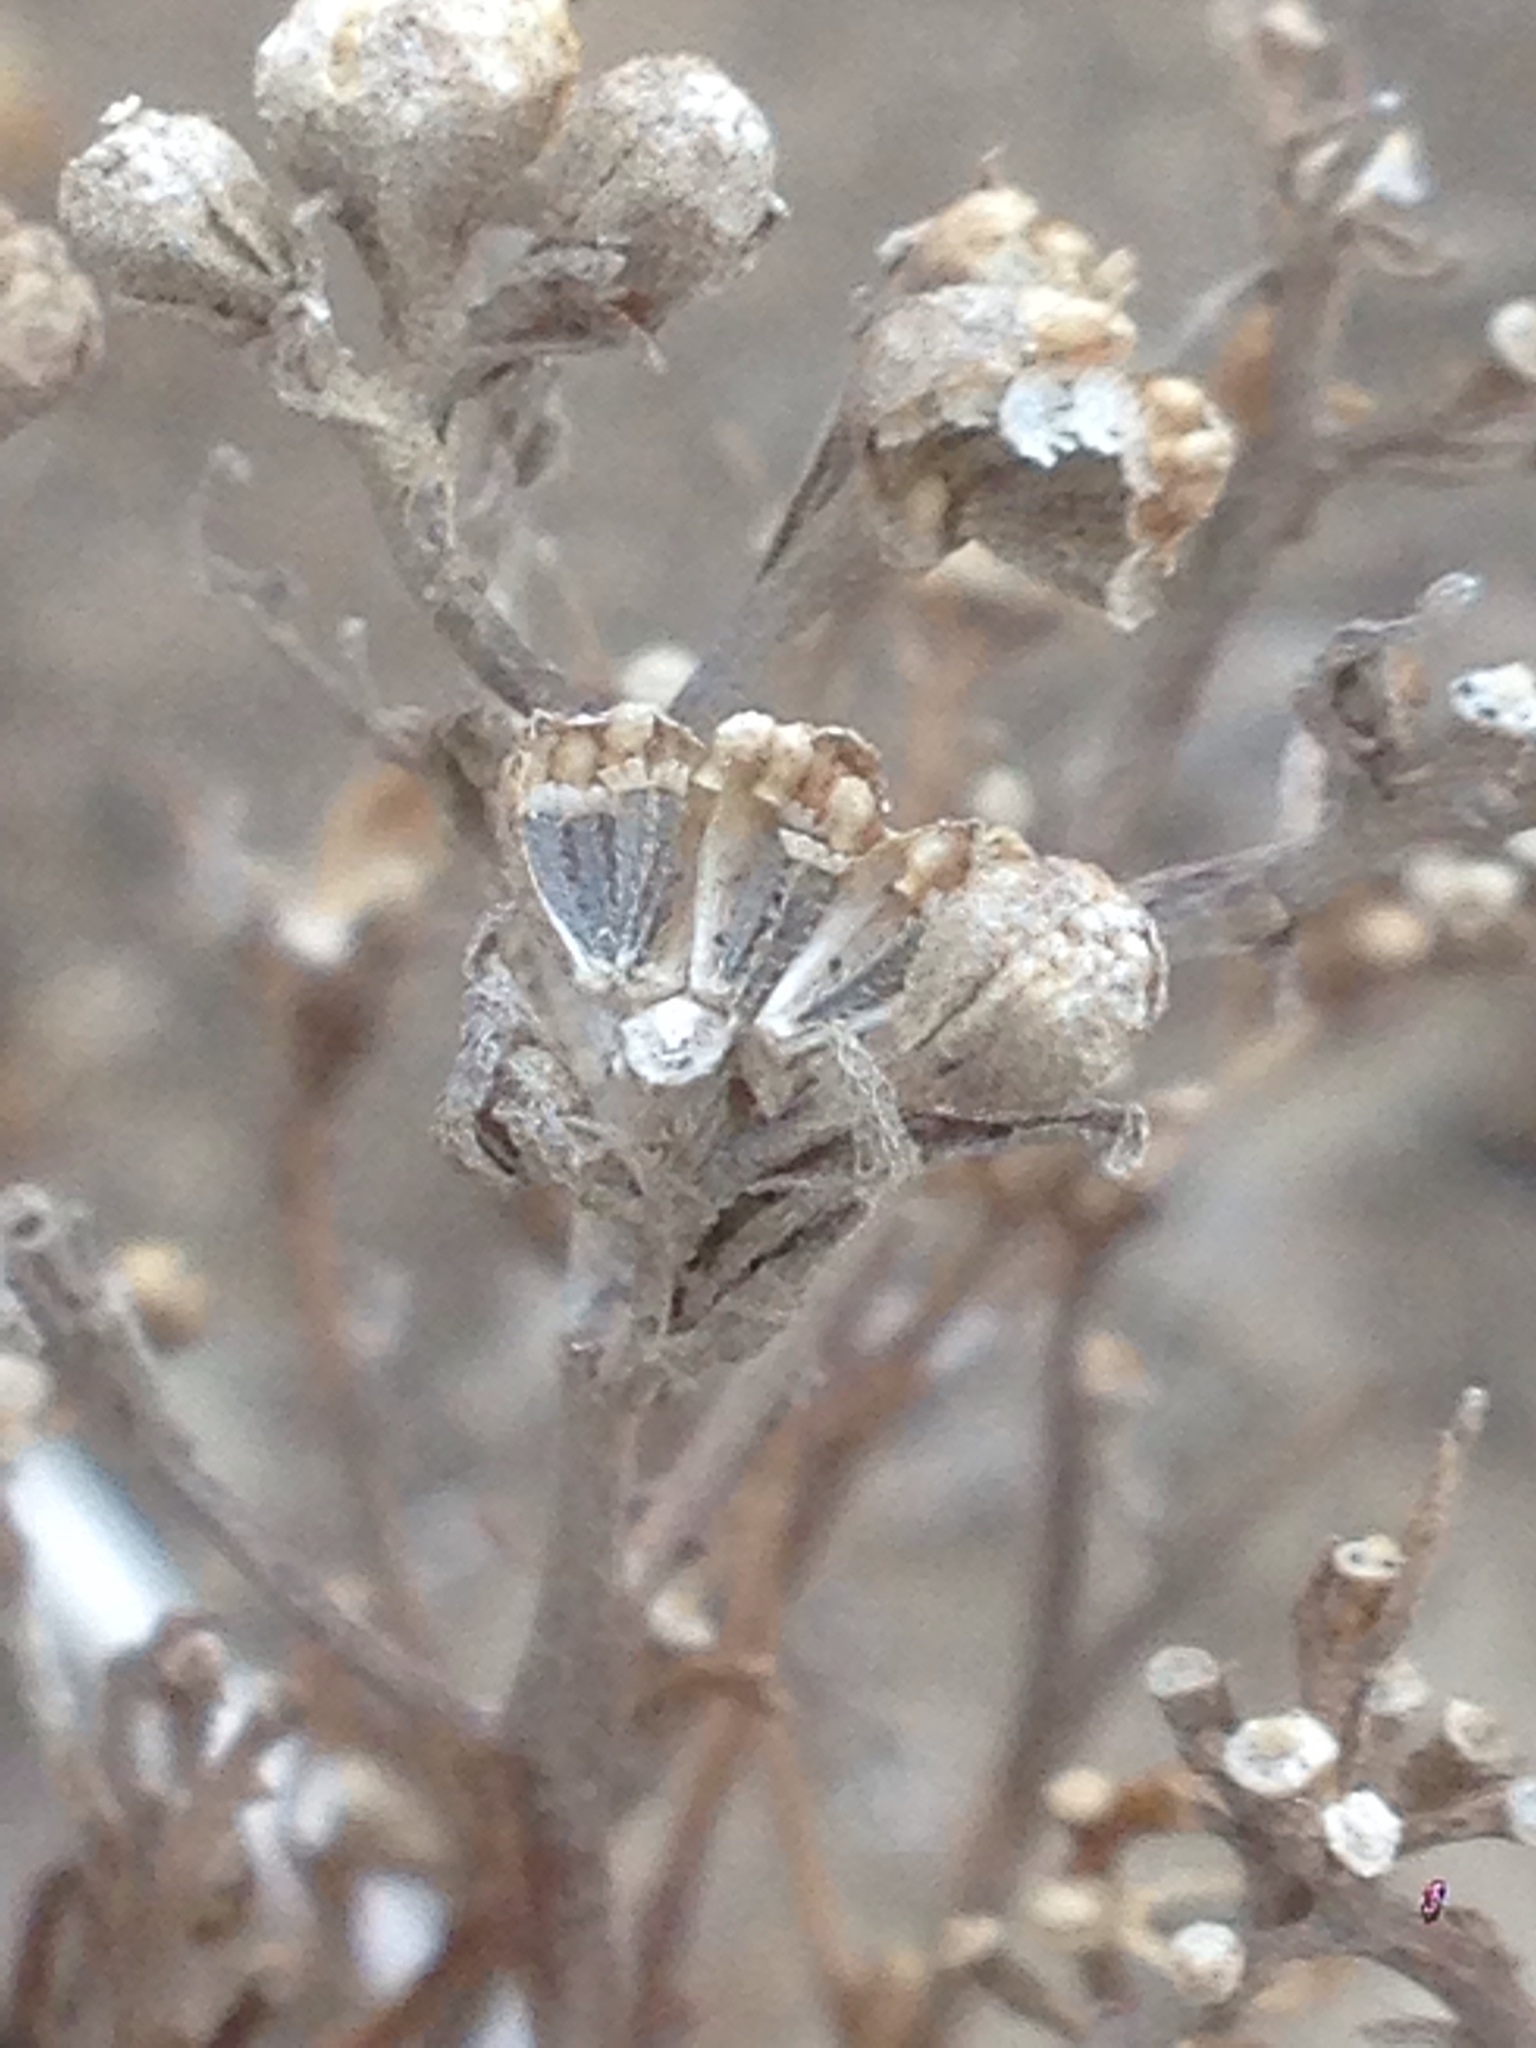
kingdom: Plantae
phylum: Tracheophyta
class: Magnoliopsida
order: Asterales
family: Asteraceae
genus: Amblyopappus
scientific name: Amblyopappus pusillus
